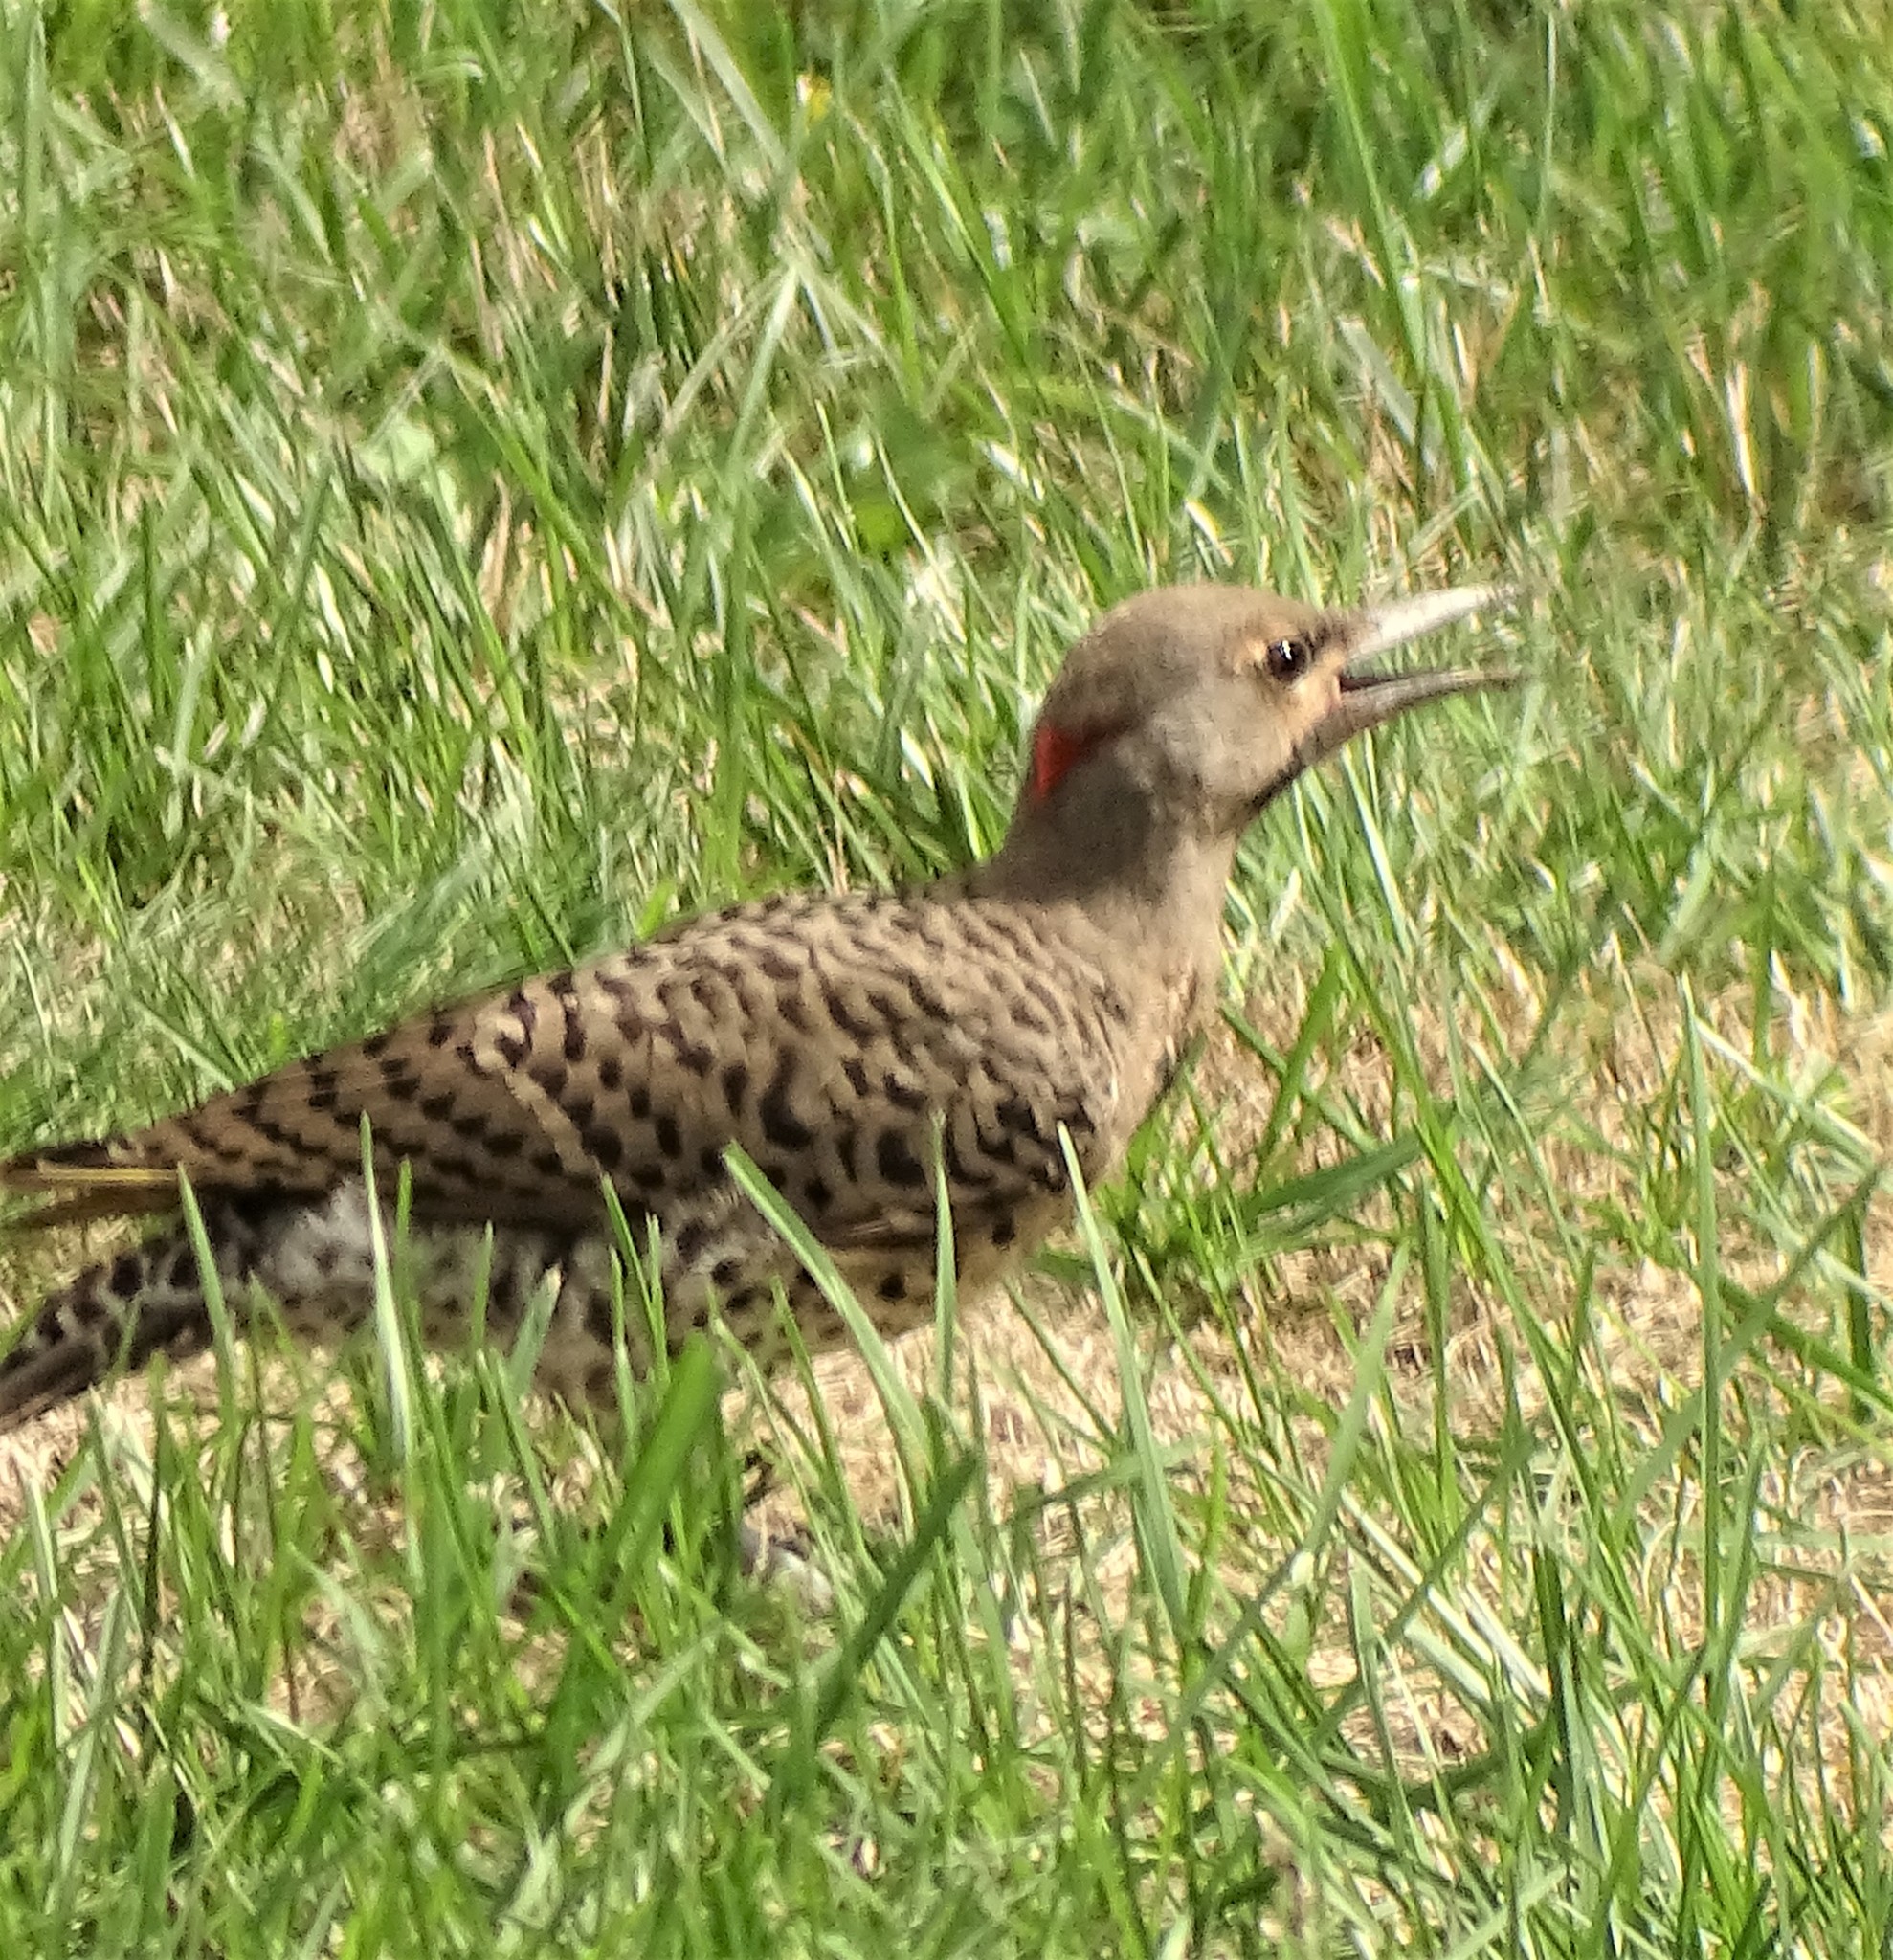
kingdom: Animalia
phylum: Chordata
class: Aves
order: Piciformes
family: Picidae
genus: Colaptes
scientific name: Colaptes auratus
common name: Northern flicker
